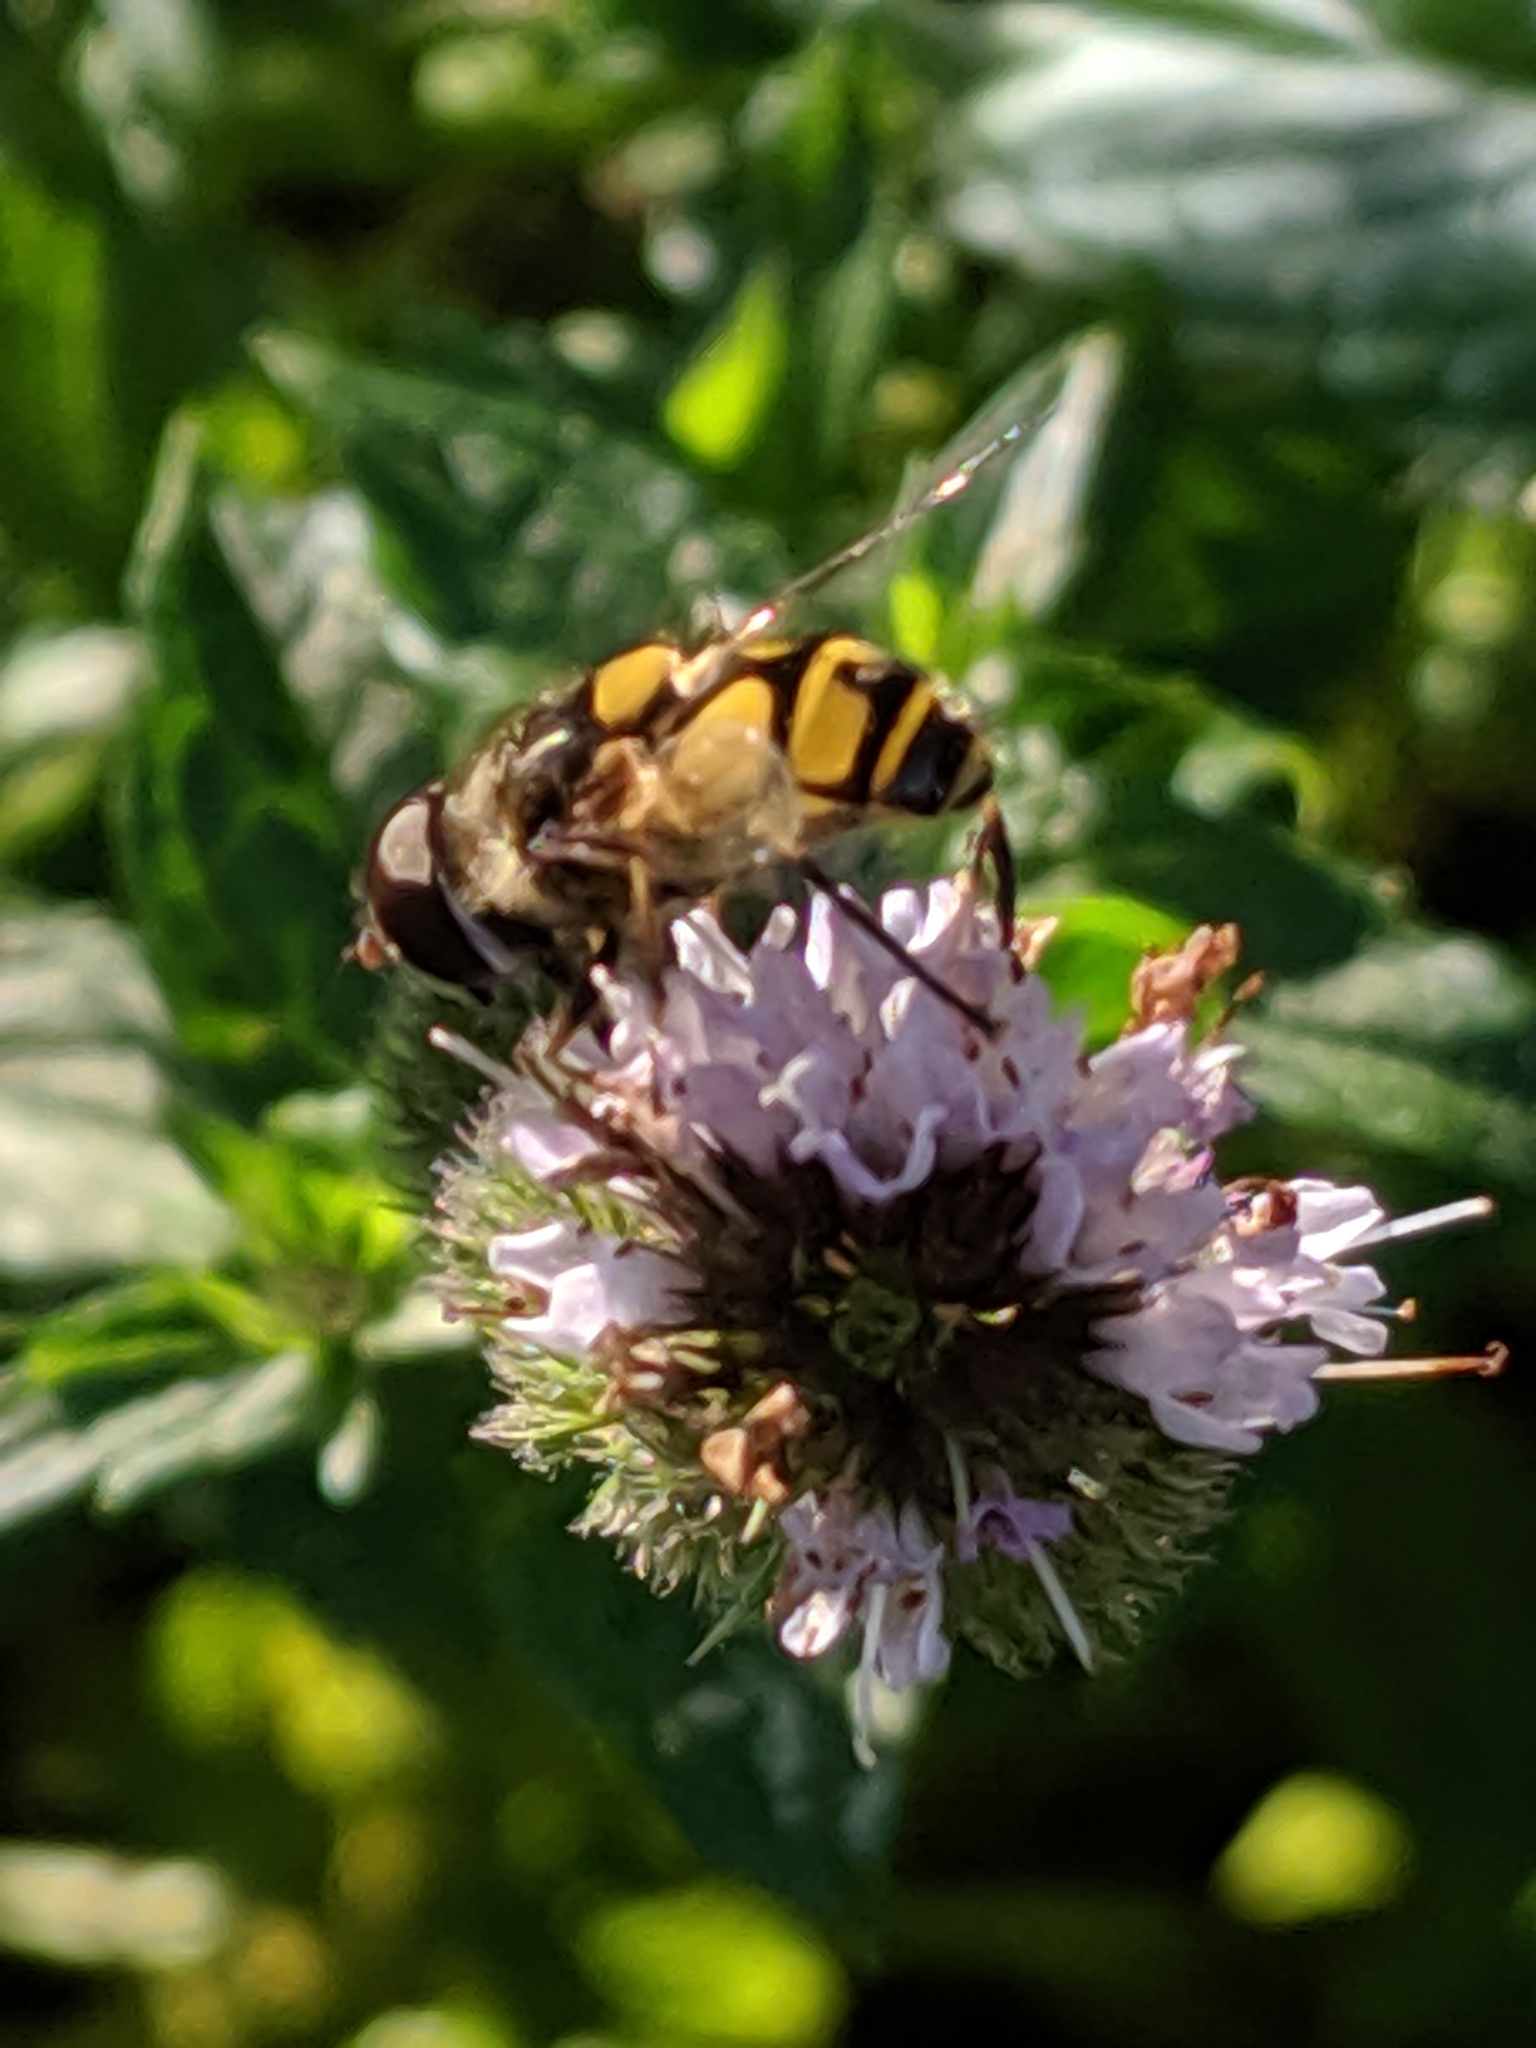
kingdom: Animalia
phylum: Arthropoda
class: Insecta
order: Diptera
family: Syrphidae
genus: Eristalis
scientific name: Eristalis transversa
